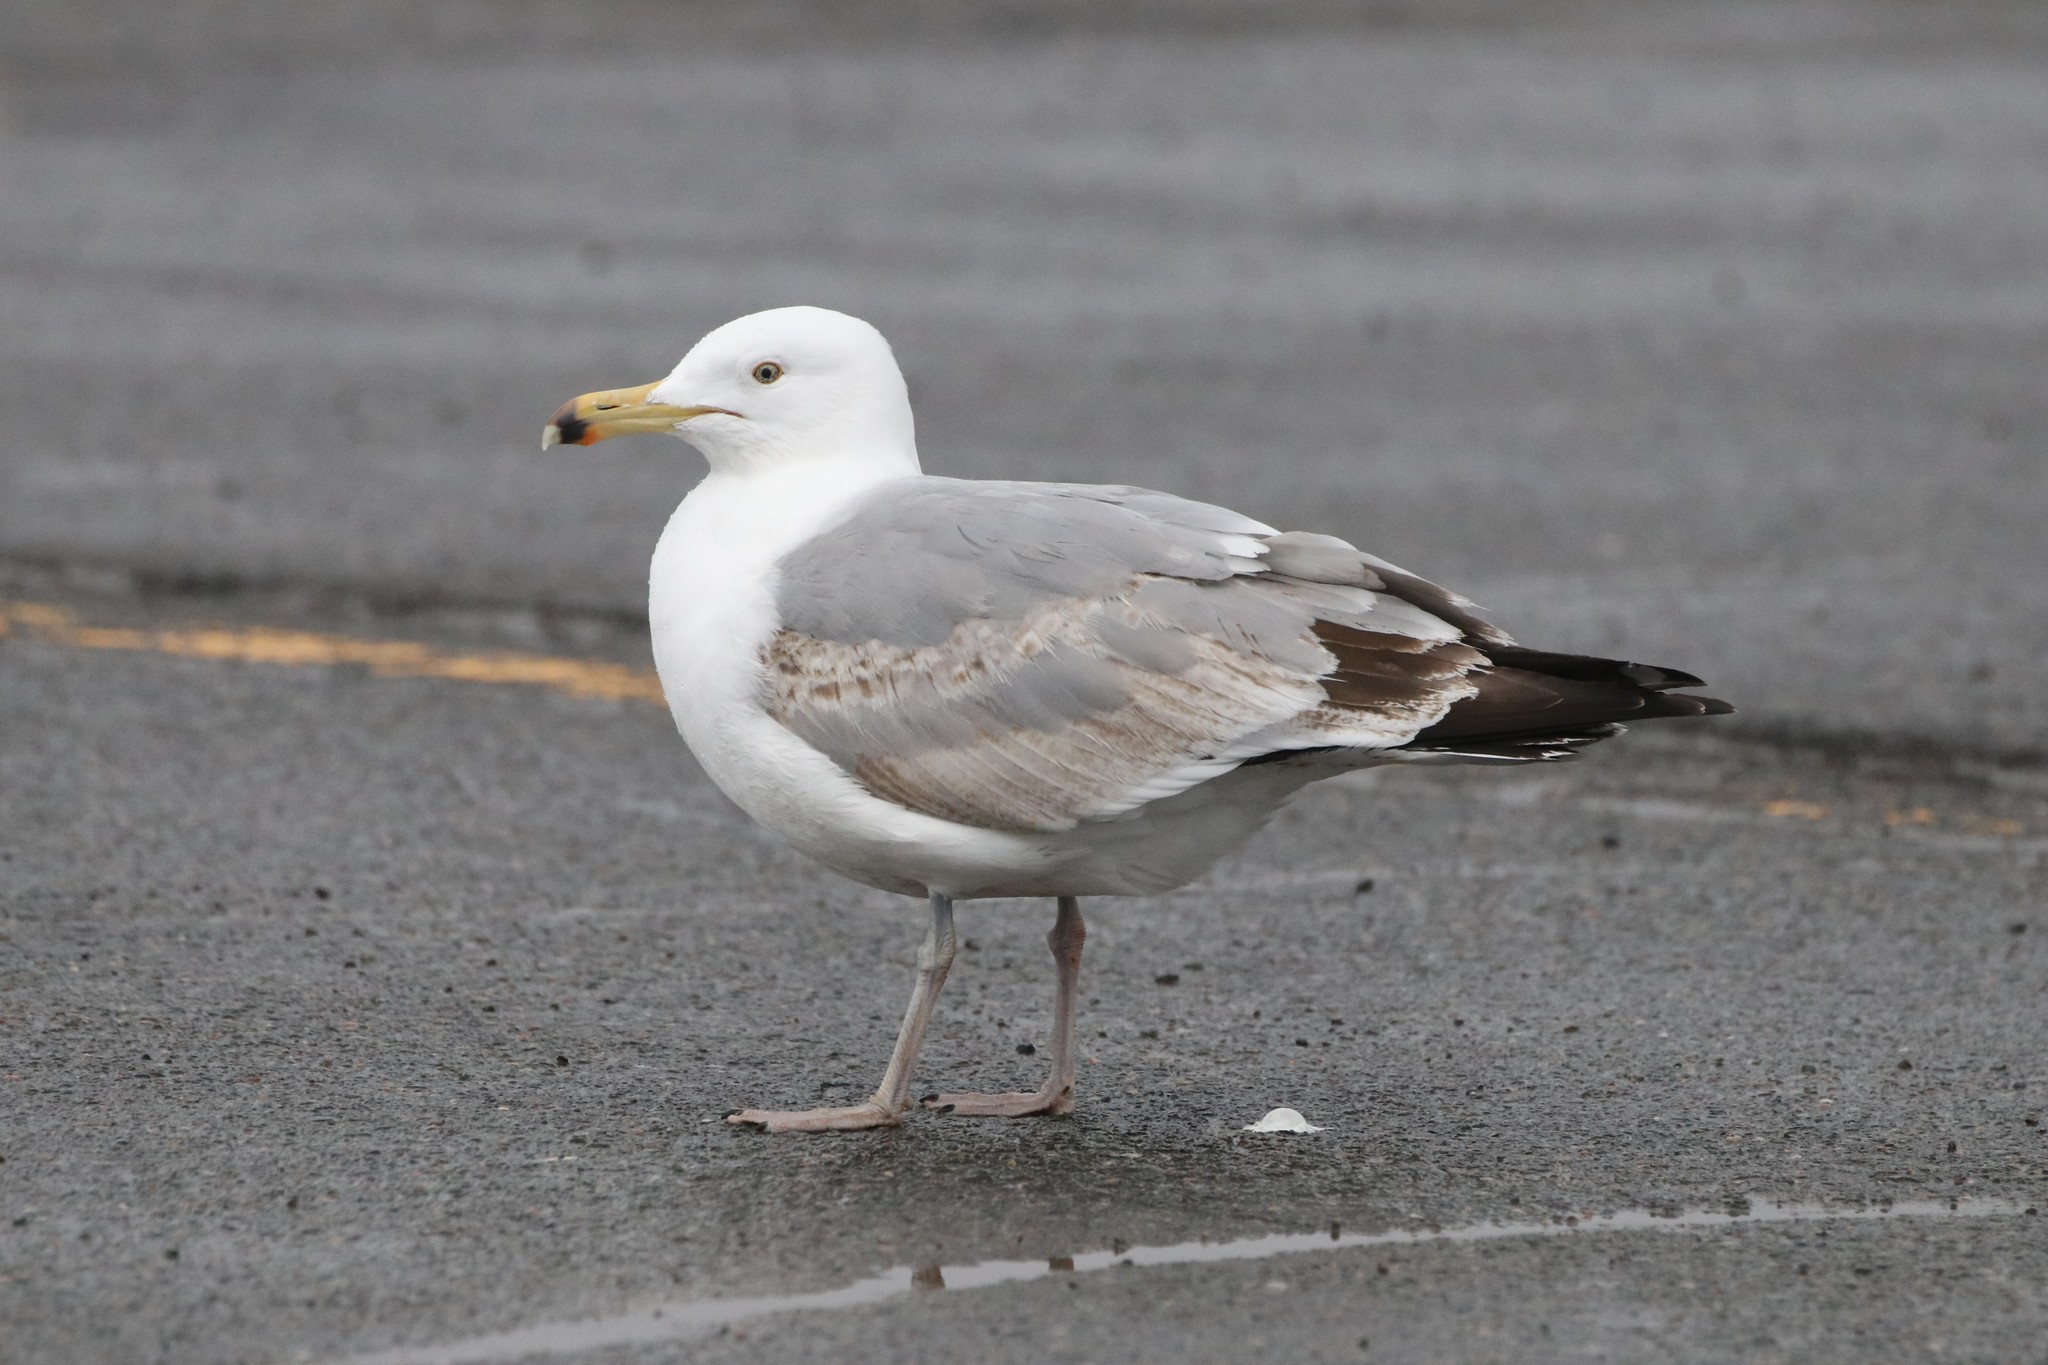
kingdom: Animalia
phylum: Chordata
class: Aves
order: Charadriiformes
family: Laridae
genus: Larus
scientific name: Larus argentatus
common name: Herring gull
